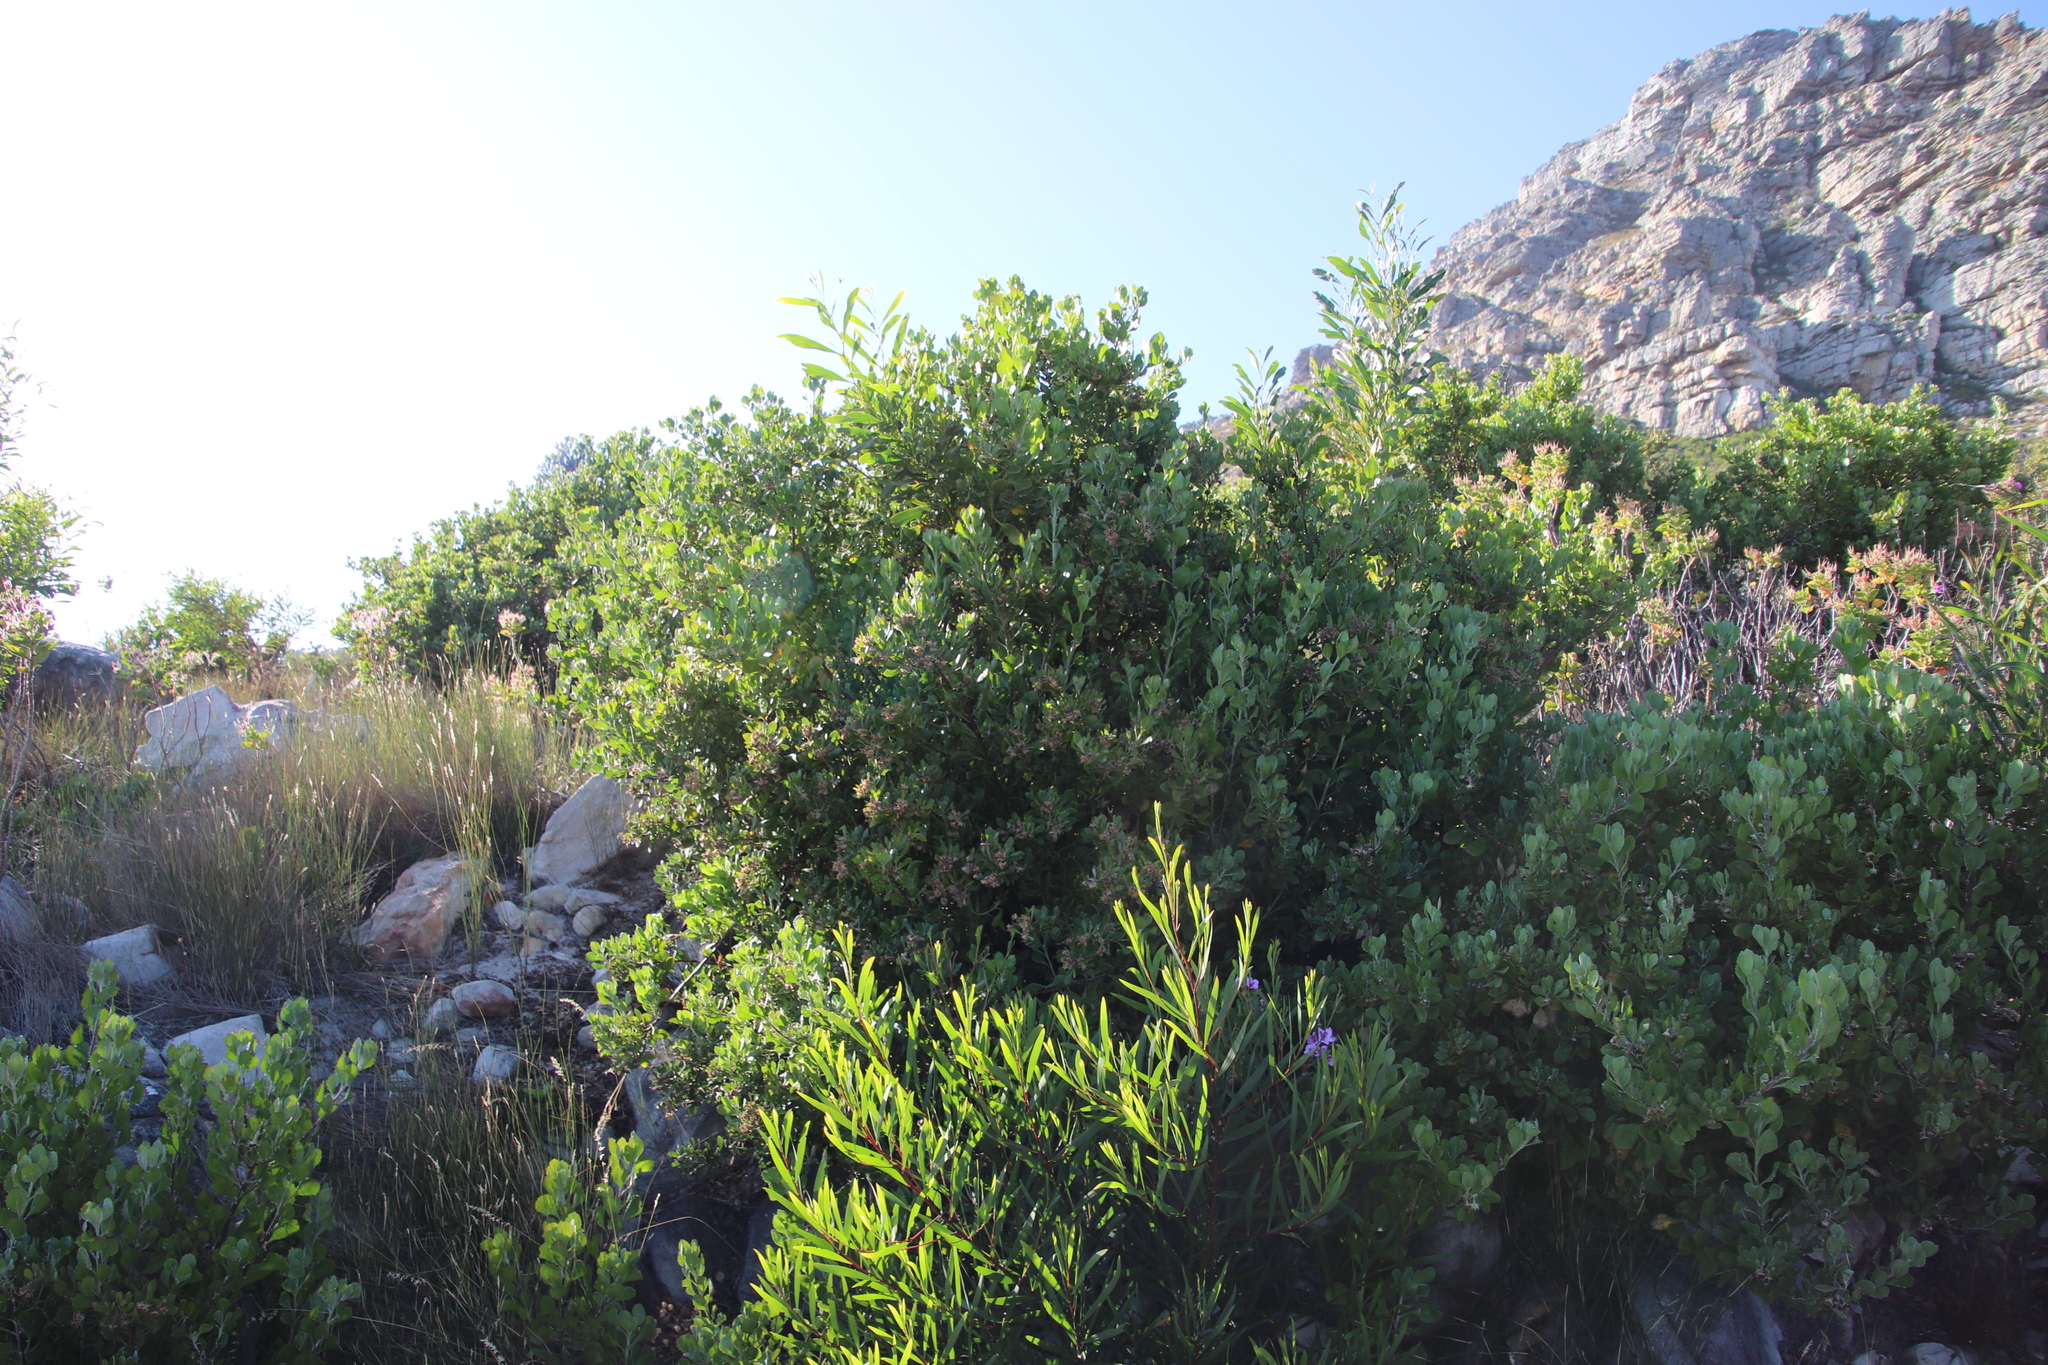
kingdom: Plantae
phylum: Tracheophyta
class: Magnoliopsida
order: Asterales
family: Asteraceae
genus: Osteospermum
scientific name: Osteospermum moniliferum
